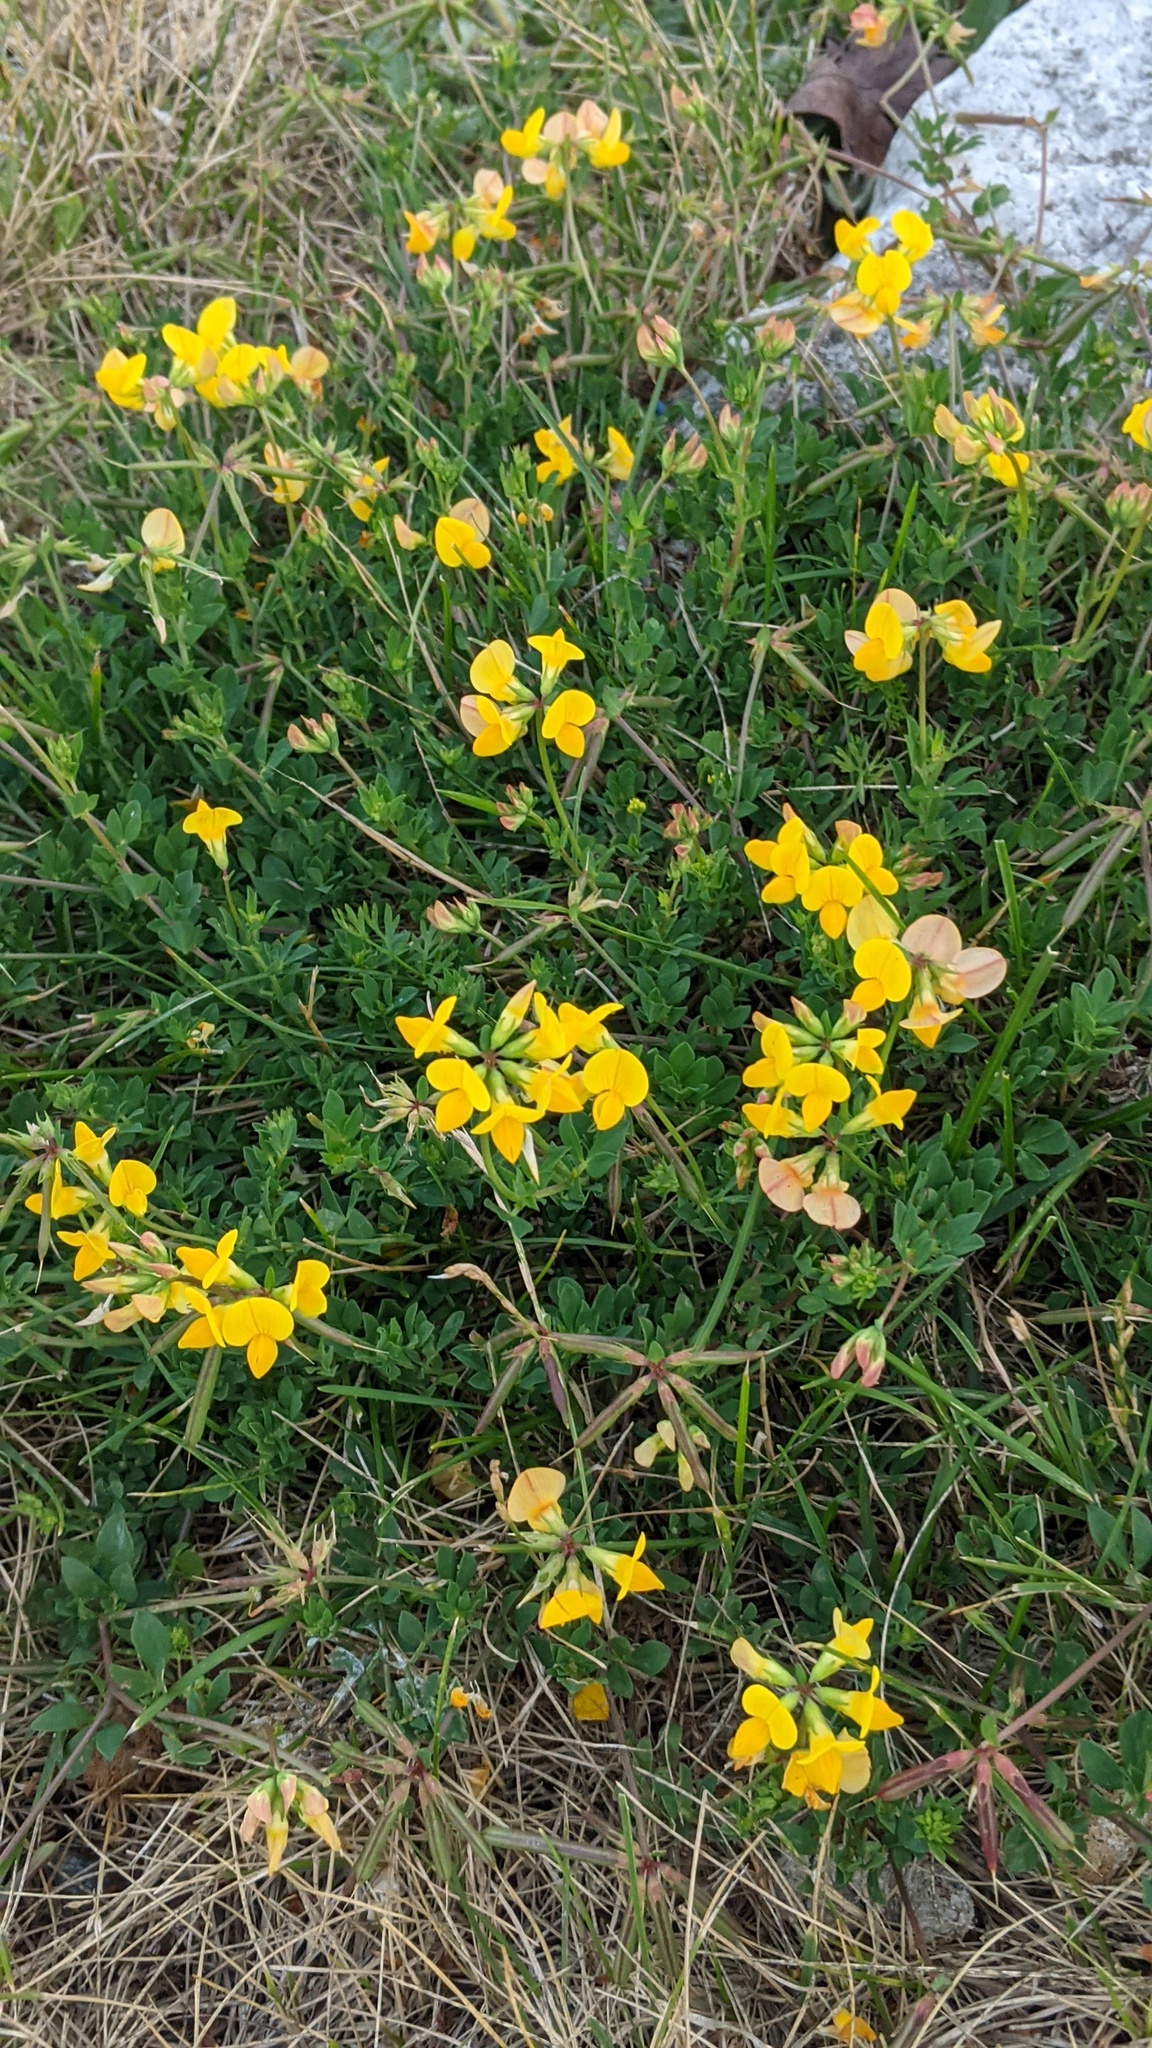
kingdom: Plantae
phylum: Tracheophyta
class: Magnoliopsida
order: Fabales
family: Fabaceae
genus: Lotus
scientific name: Lotus corniculatus
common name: Common bird's-foot-trefoil
